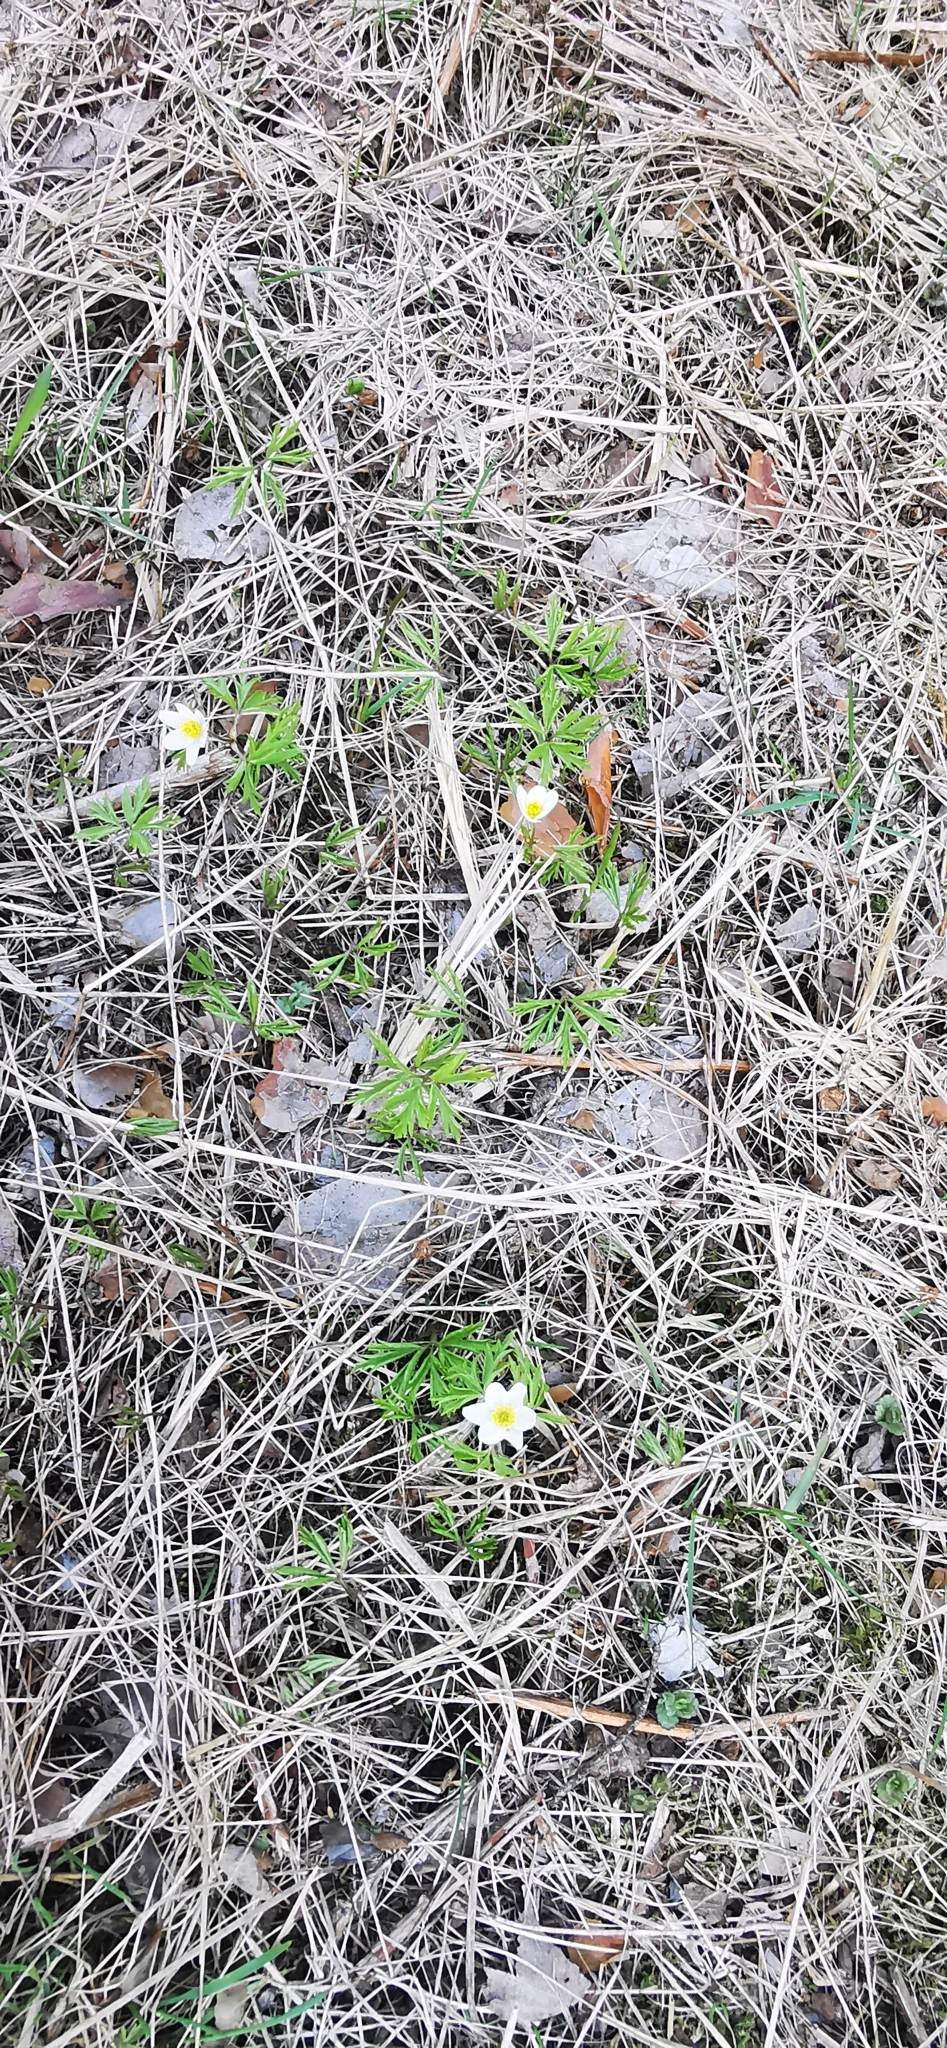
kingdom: Plantae
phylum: Tracheophyta
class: Magnoliopsida
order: Ranunculales
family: Ranunculaceae
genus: Anemone
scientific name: Anemone nemorosa
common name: Wood anemone
